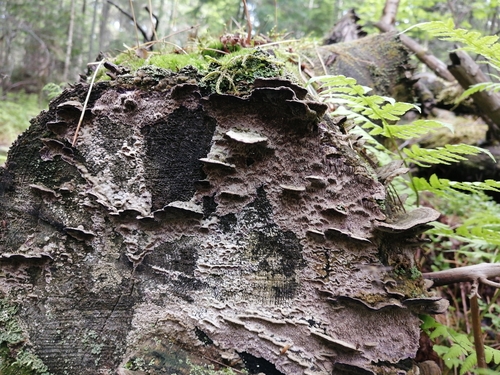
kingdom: Fungi
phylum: Basidiomycota
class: Agaricomycetes
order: Hymenochaetales
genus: Trichaptum
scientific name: Trichaptum fuscoviolaceum
